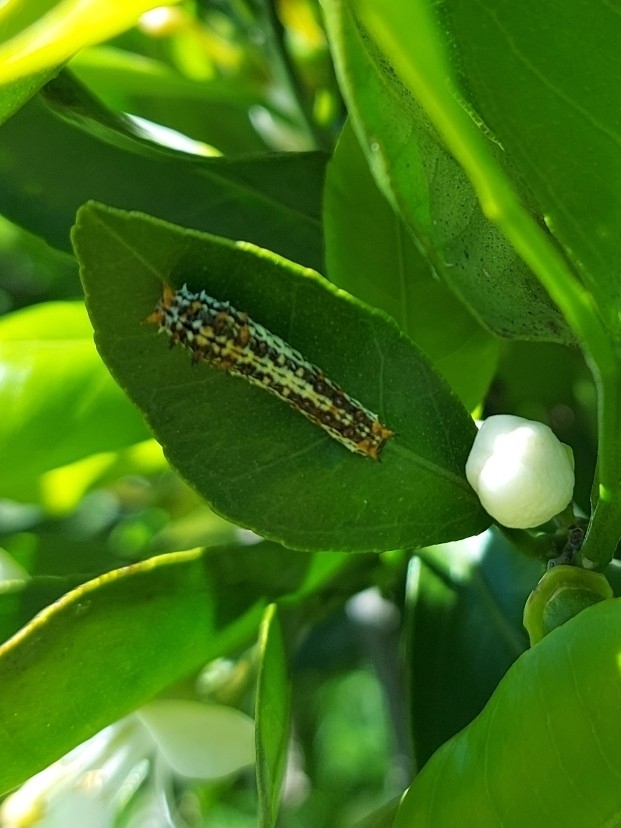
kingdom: Animalia
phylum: Arthropoda
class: Insecta
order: Lepidoptera
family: Papilionidae
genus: Papilio
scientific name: Papilio demodocus
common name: Christmas butterfly
